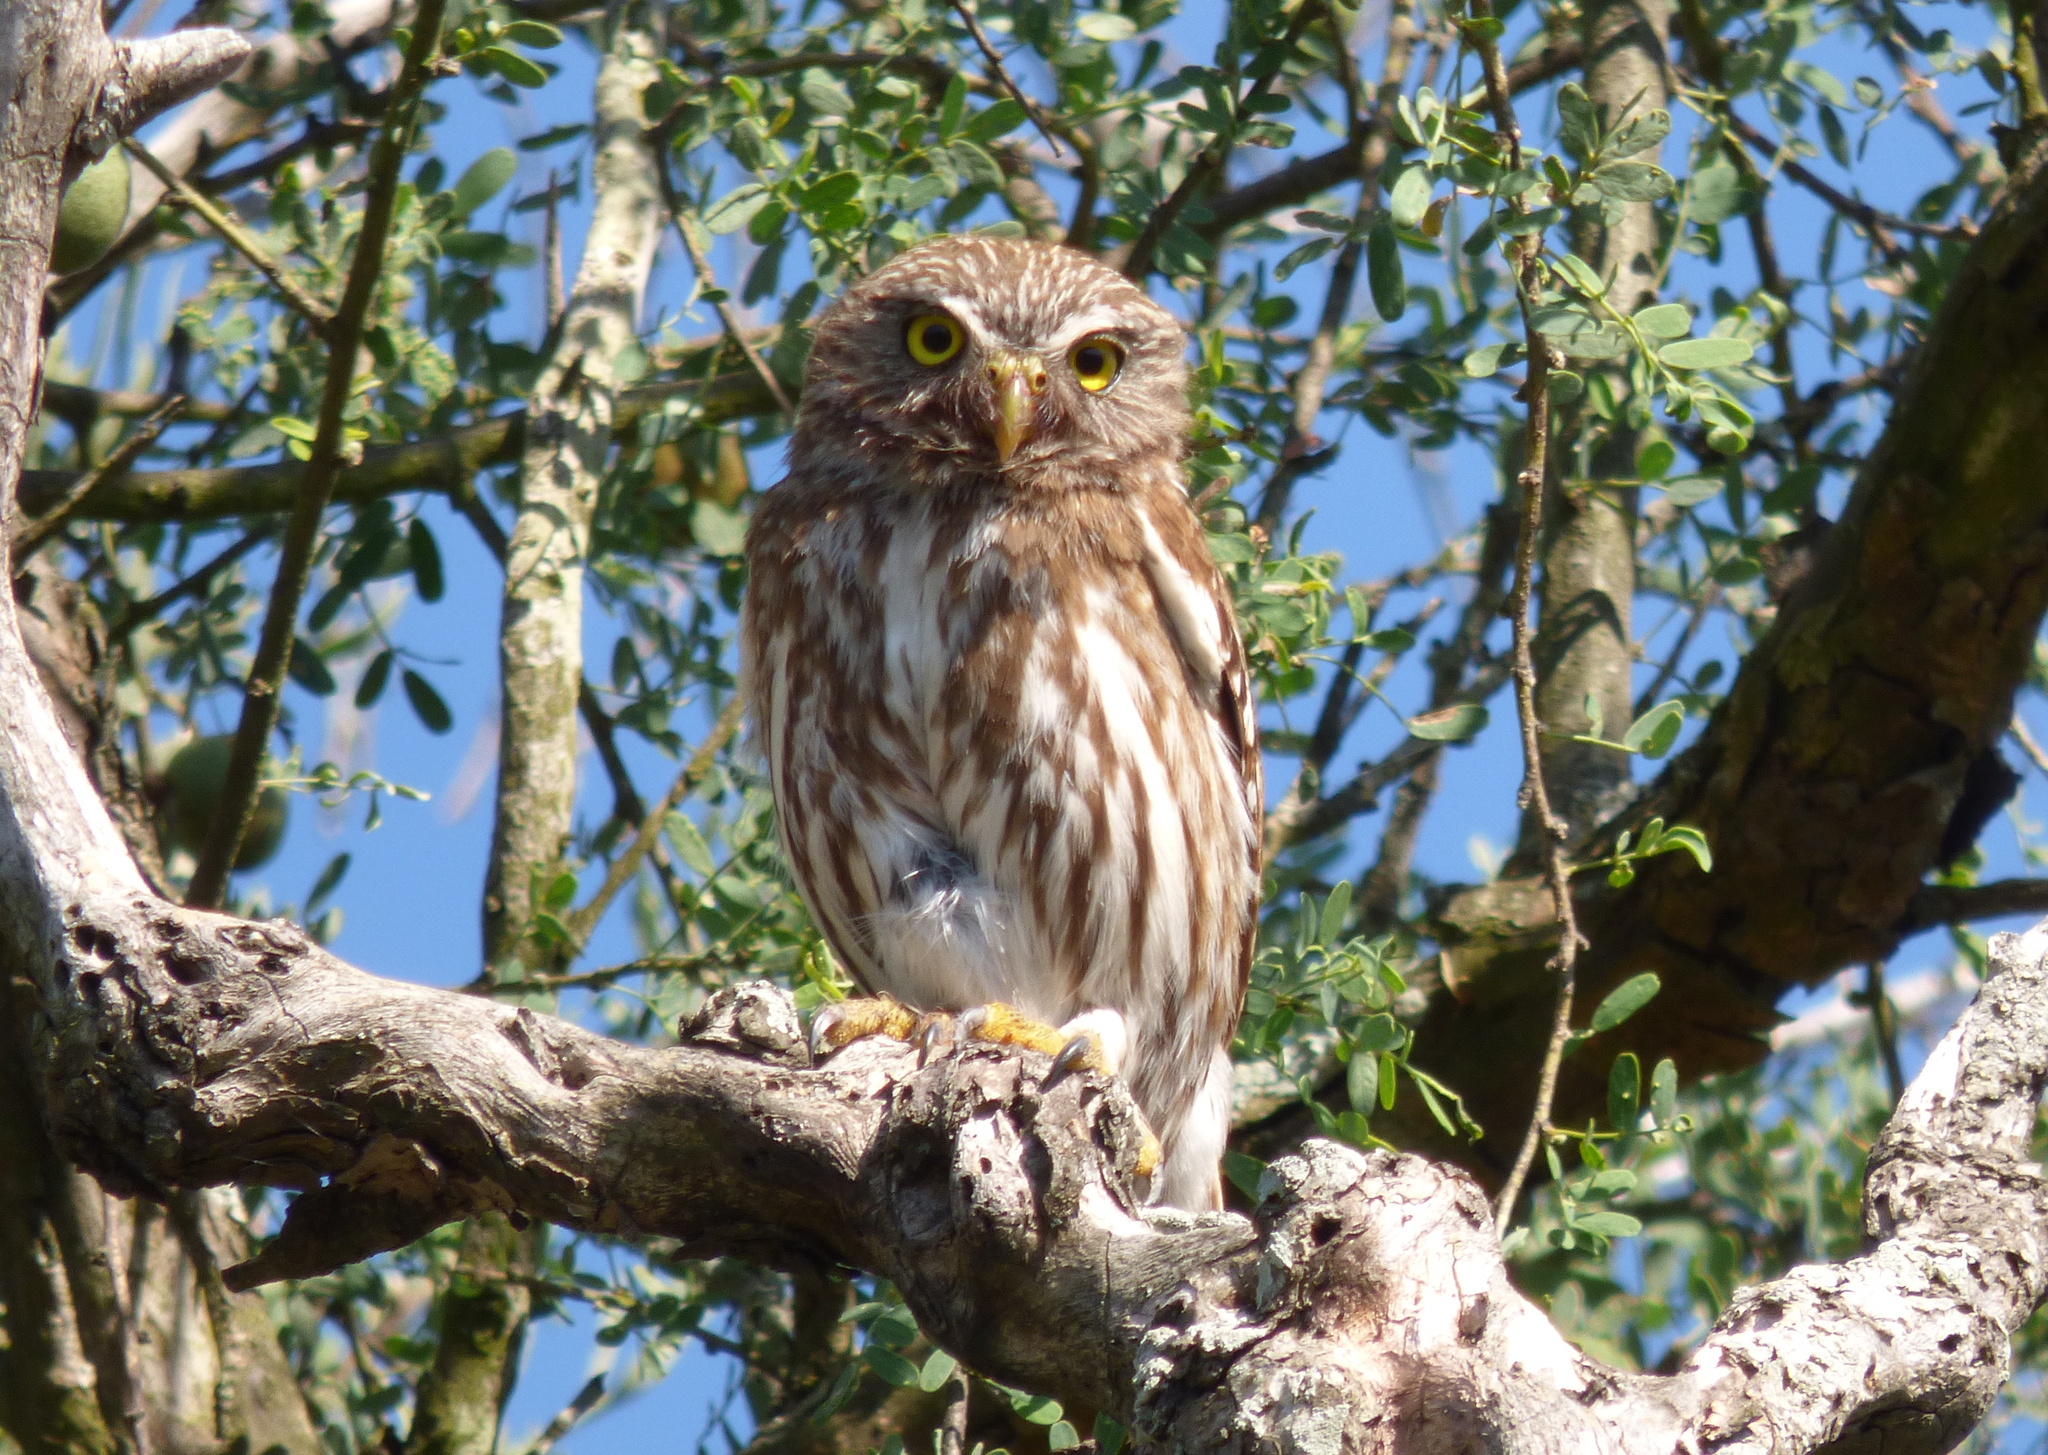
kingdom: Animalia
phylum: Chordata
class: Aves
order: Strigiformes
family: Strigidae
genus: Glaucidium
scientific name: Glaucidium brasilianum
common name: Ferruginous pygmy-owl
